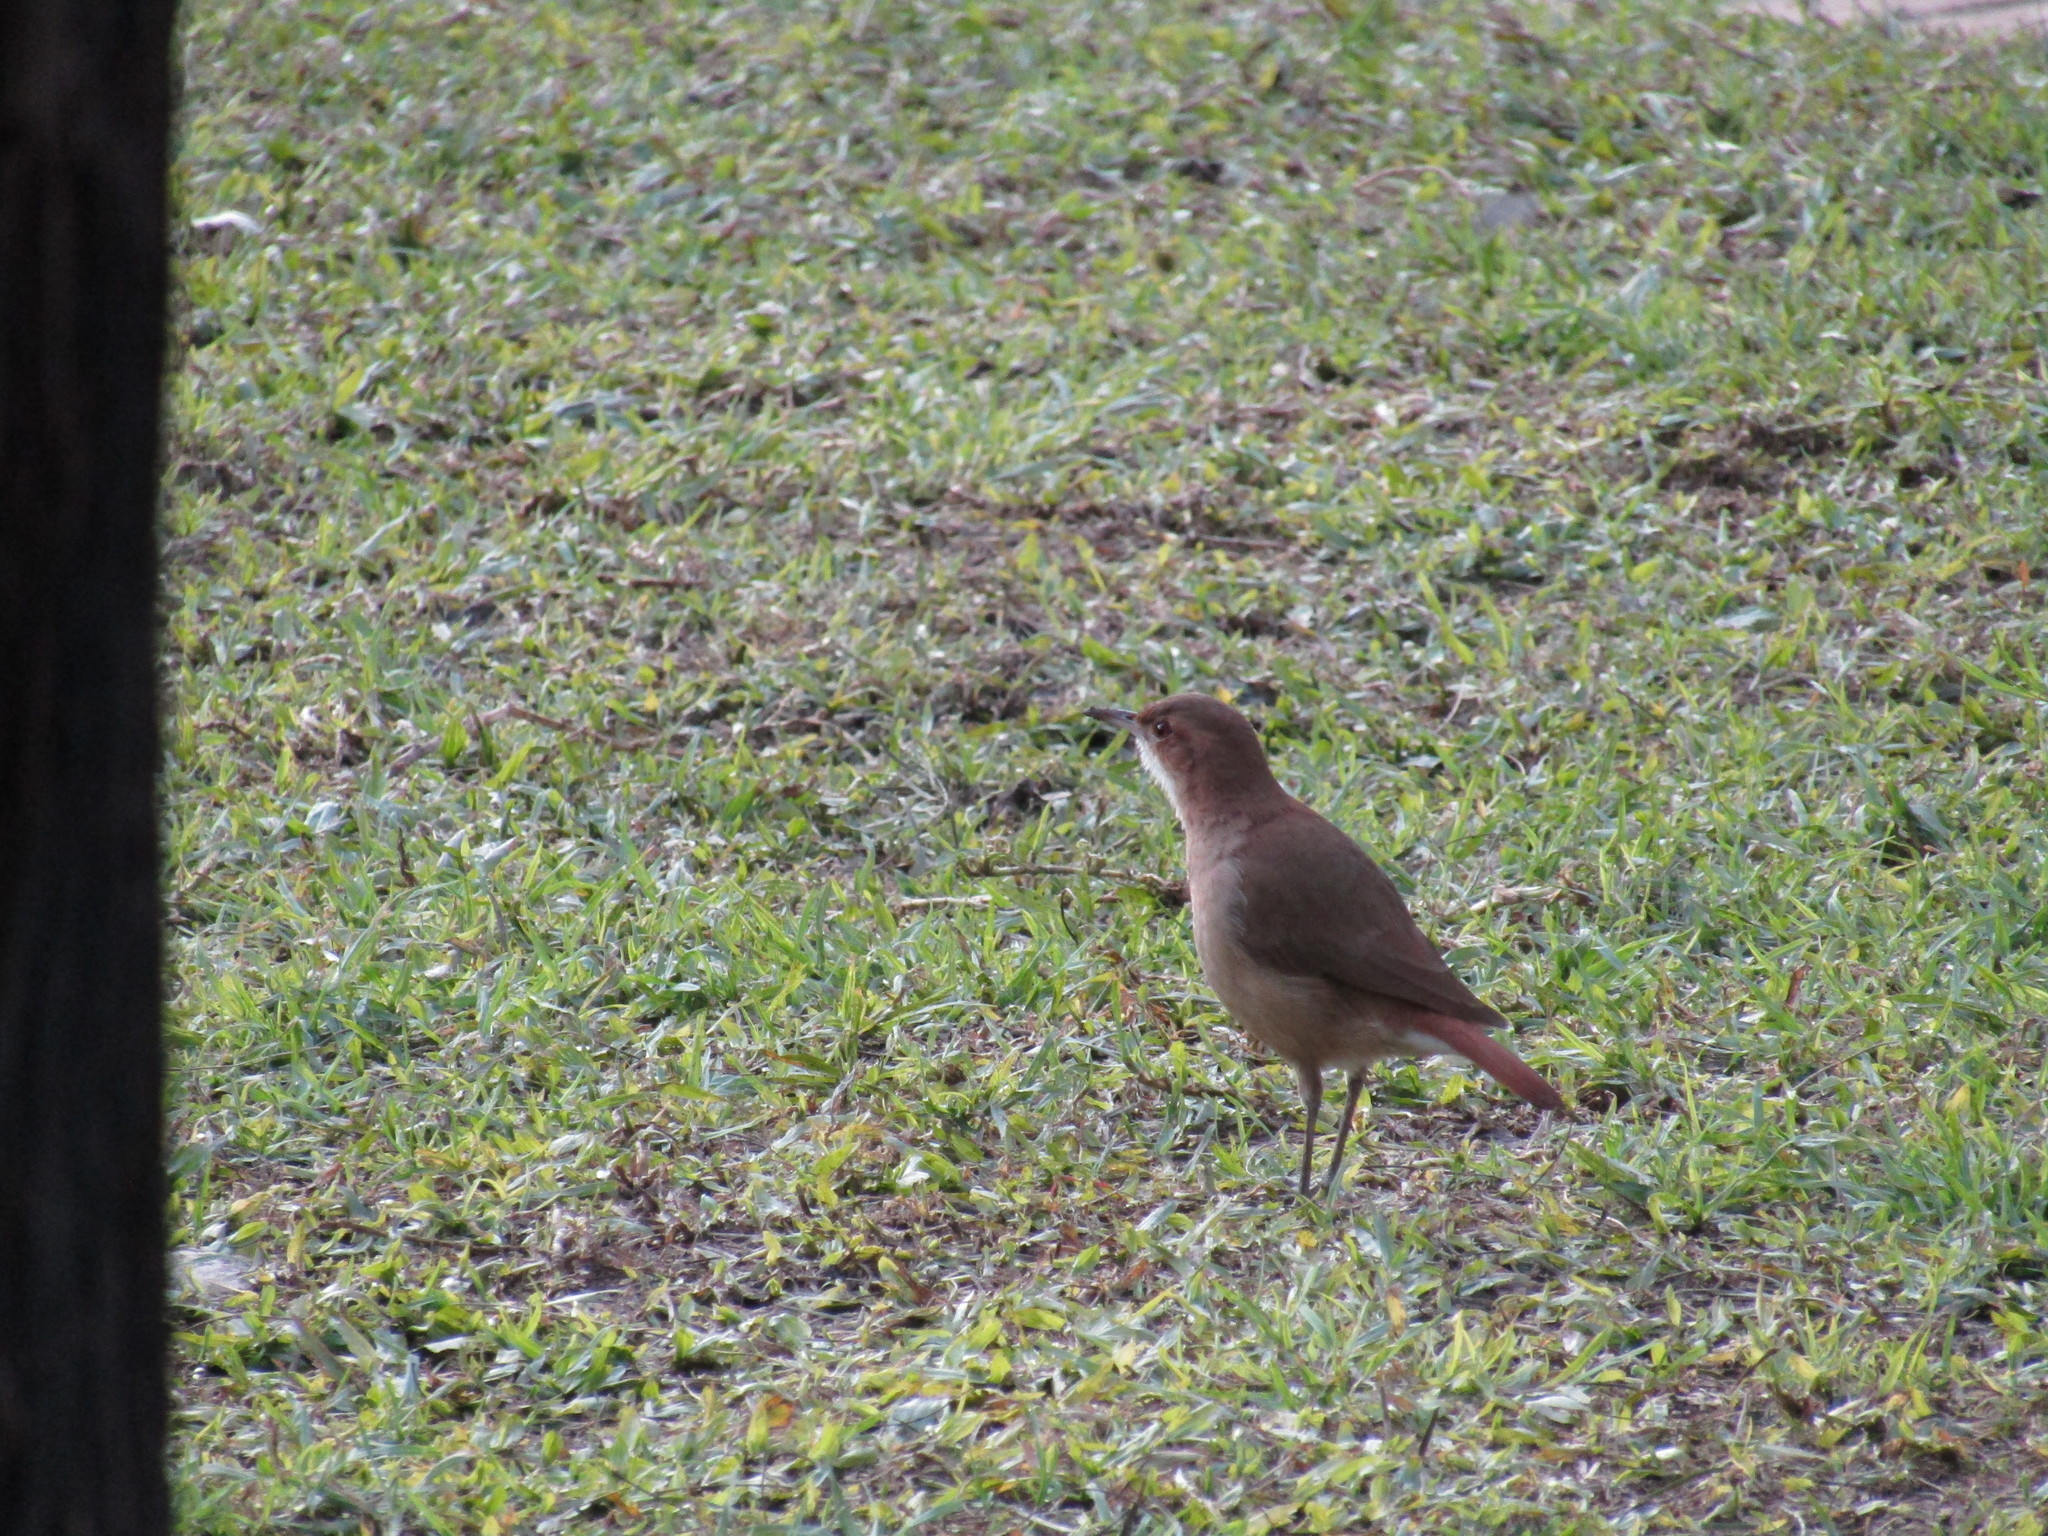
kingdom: Animalia
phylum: Chordata
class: Aves
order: Passeriformes
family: Furnariidae
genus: Furnarius
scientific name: Furnarius rufus
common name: Rufous hornero
